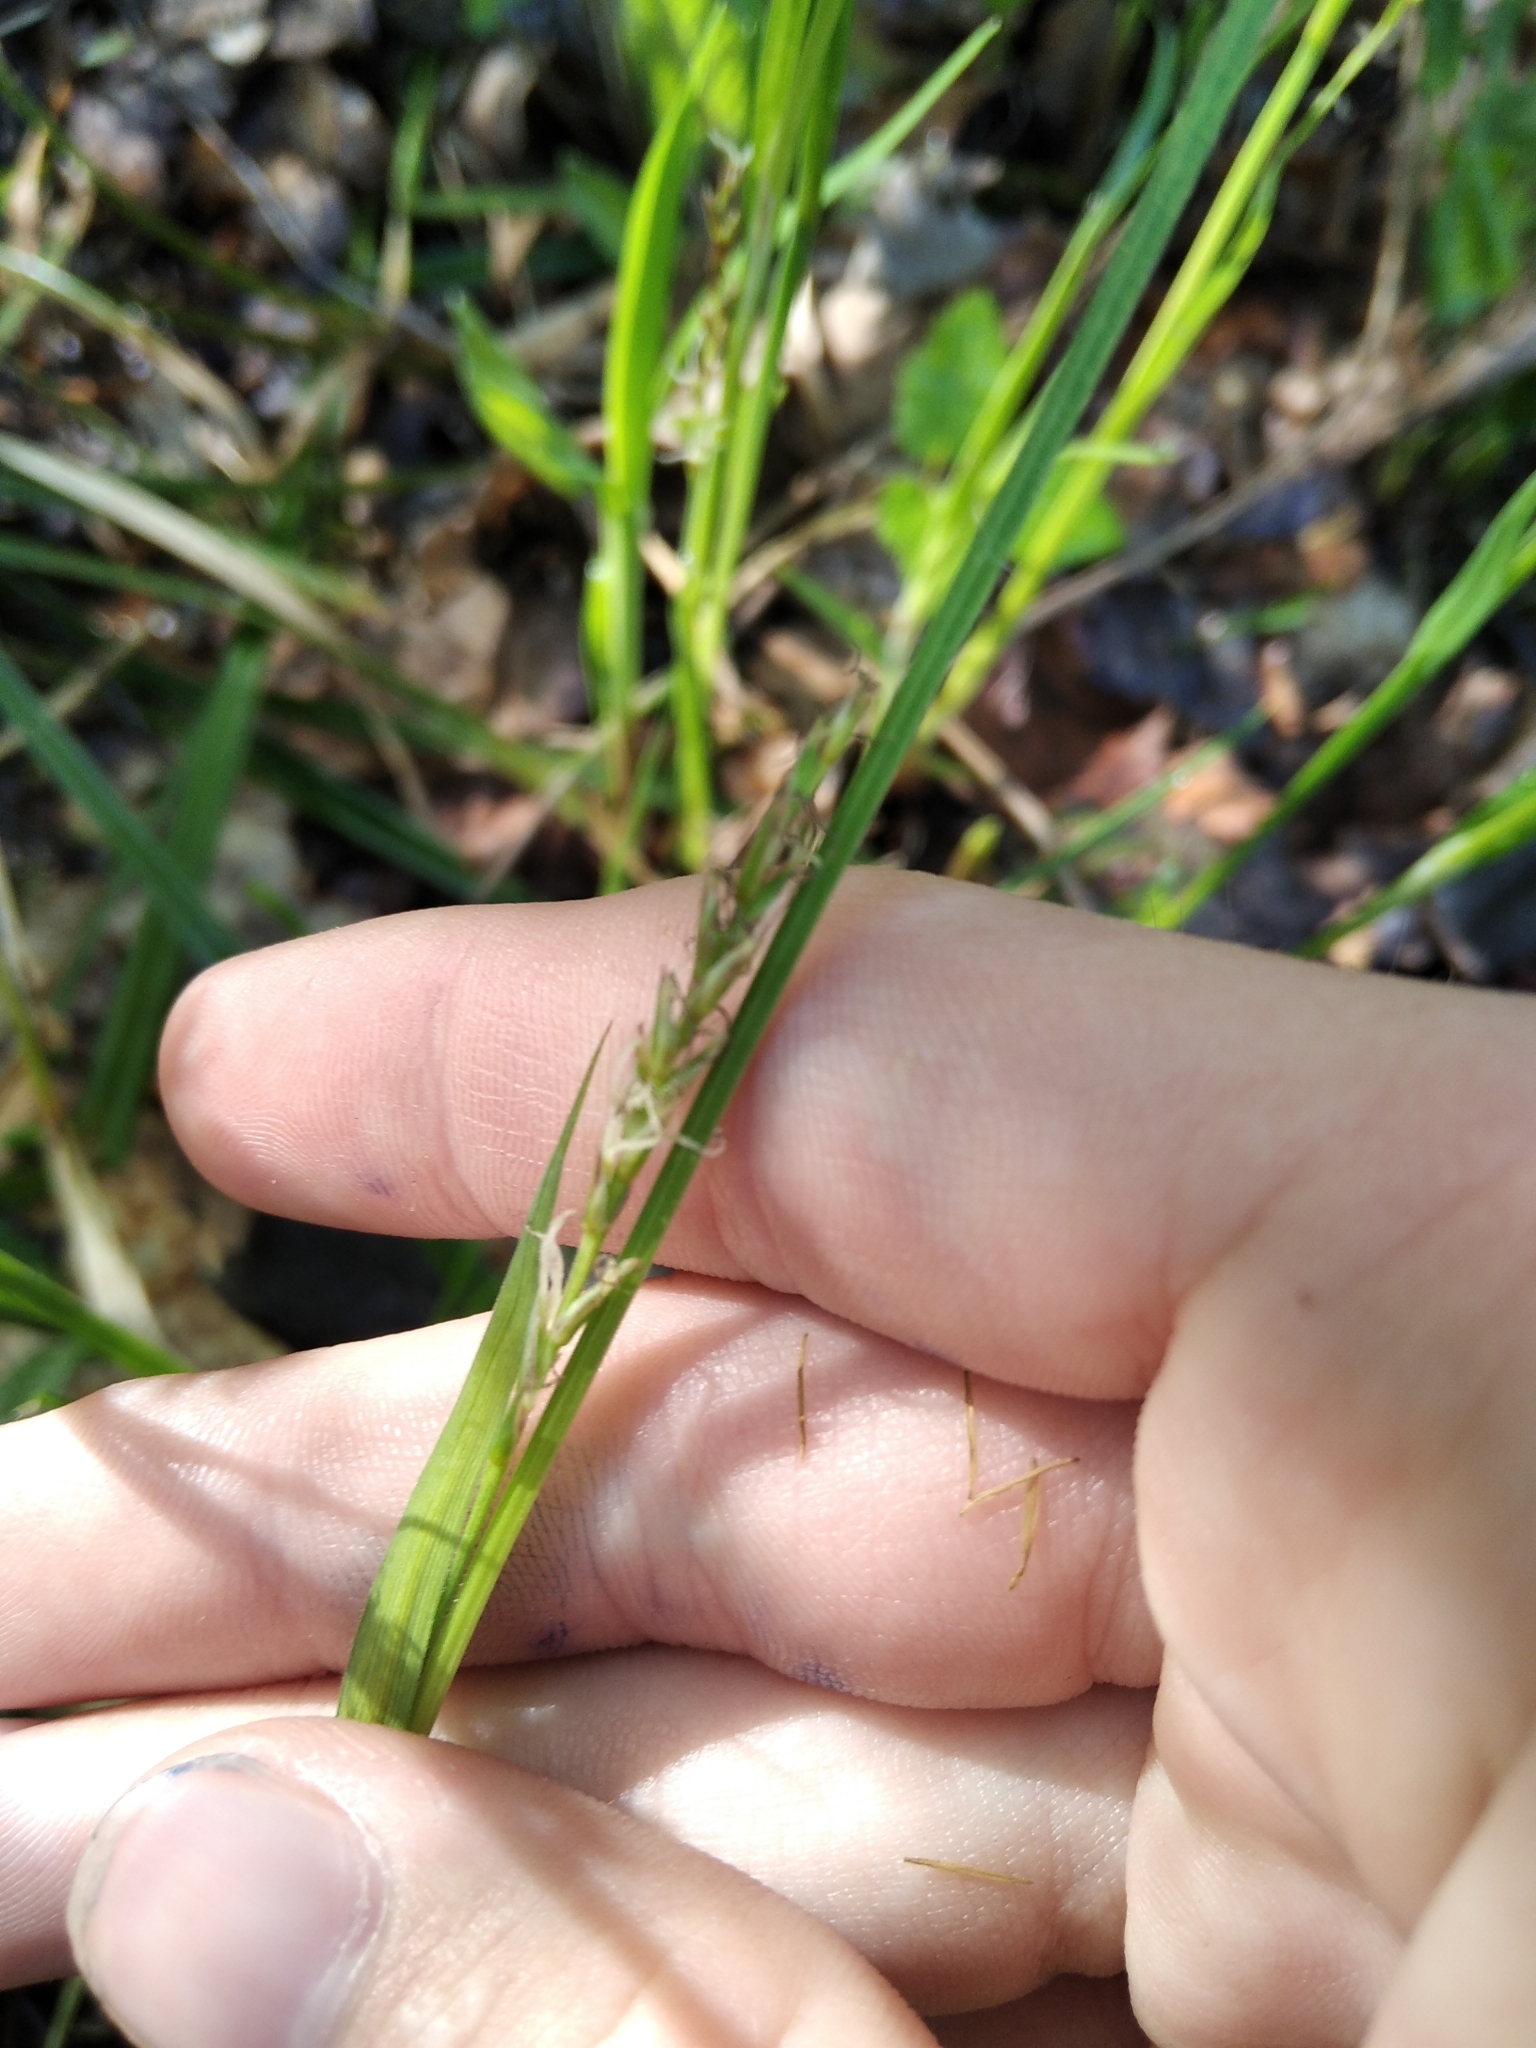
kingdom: Plantae
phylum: Tracheophyta
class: Liliopsida
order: Poales
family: Cyperaceae
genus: Carex
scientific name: Carex pilosa
